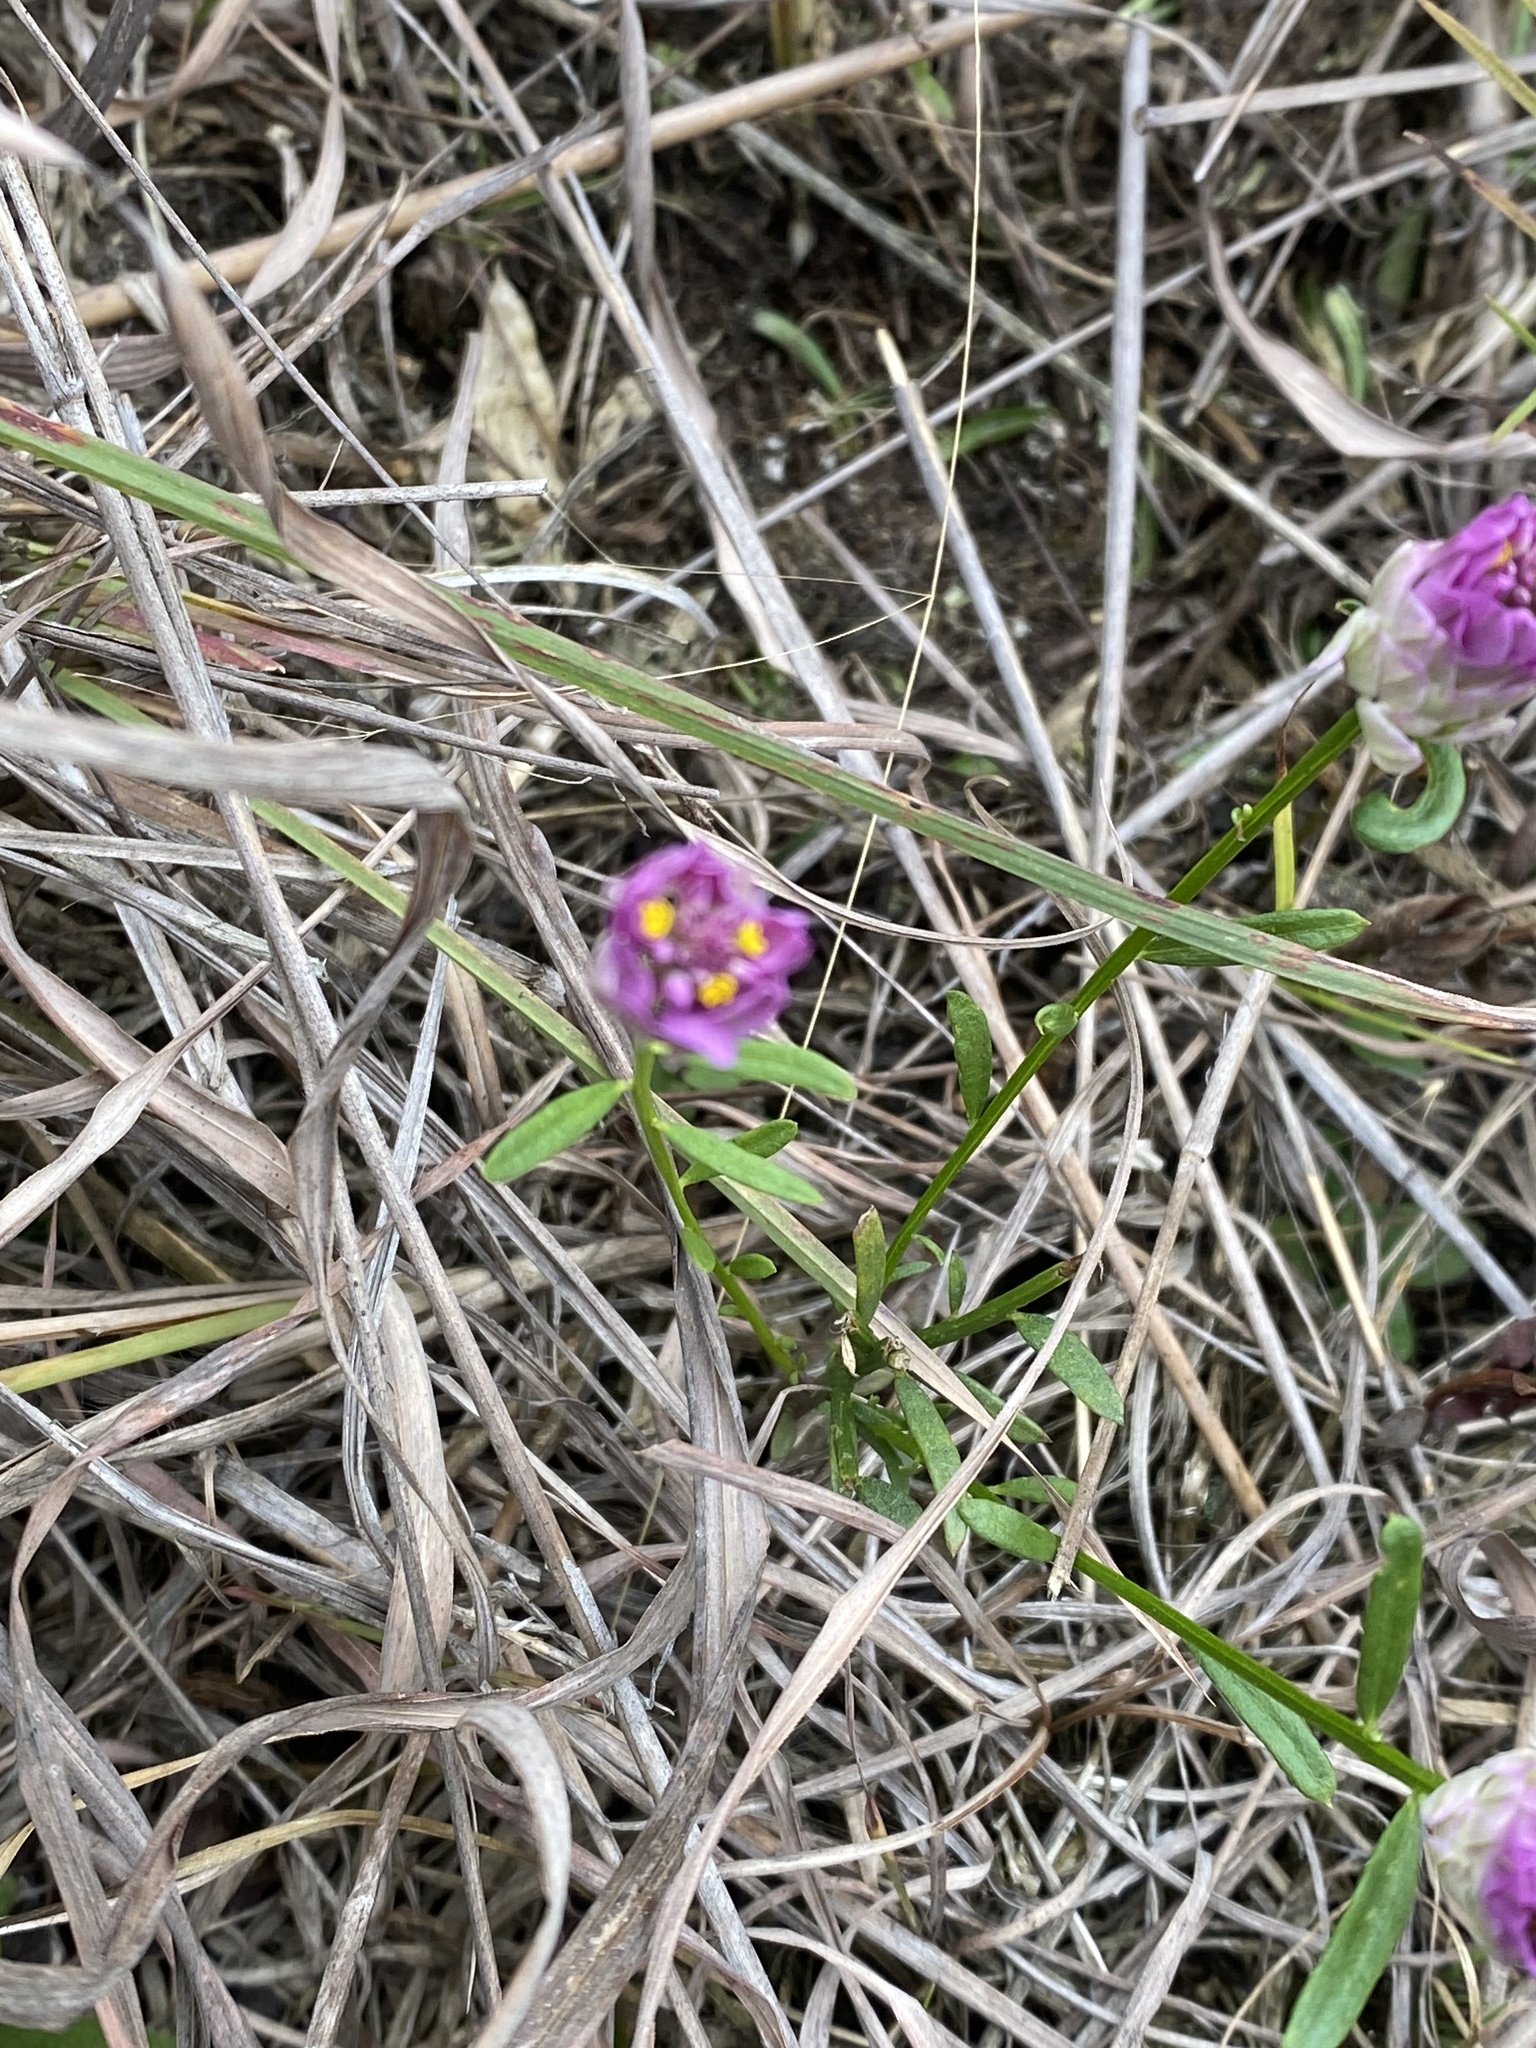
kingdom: Plantae
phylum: Tracheophyta
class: Magnoliopsida
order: Fabales
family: Polygalaceae
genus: Polygala
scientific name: Polygala sanguinea
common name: Blood milkwort
